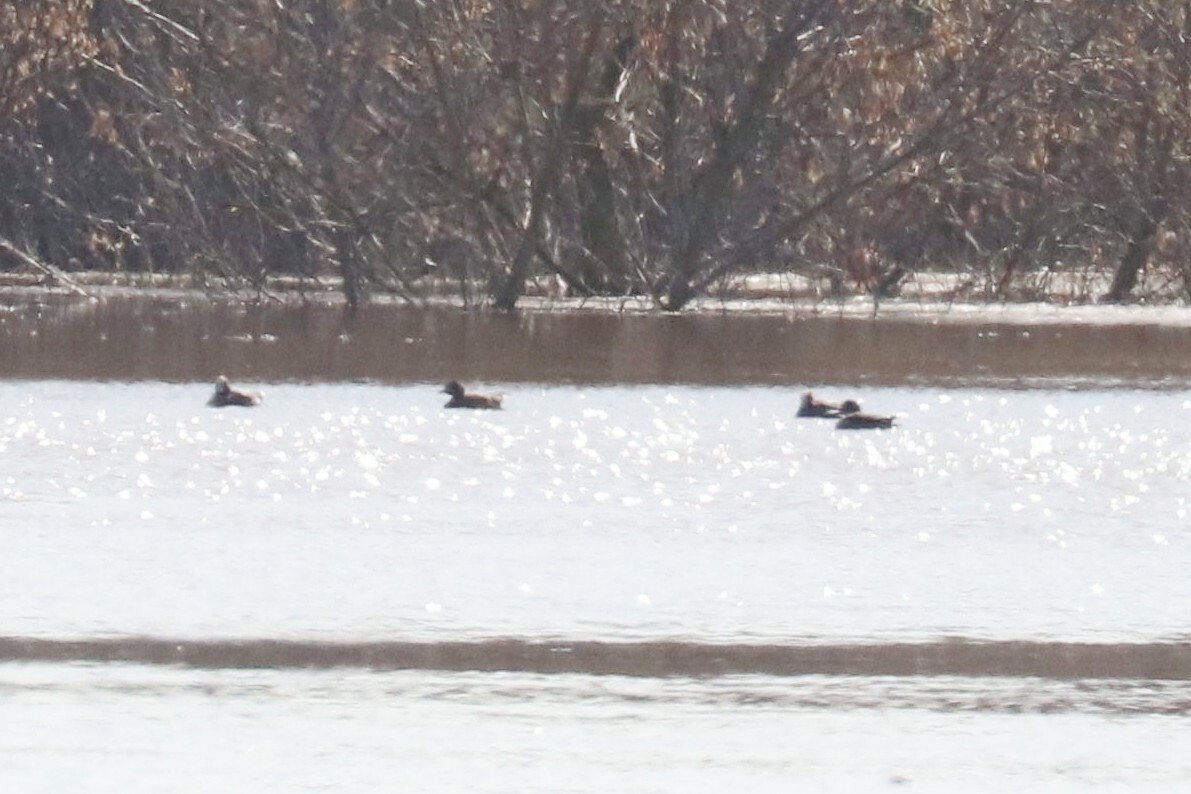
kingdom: Animalia
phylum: Chordata
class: Aves
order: Anseriformes
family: Anatidae
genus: Mareca
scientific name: Mareca penelope
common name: Eurasian wigeon
